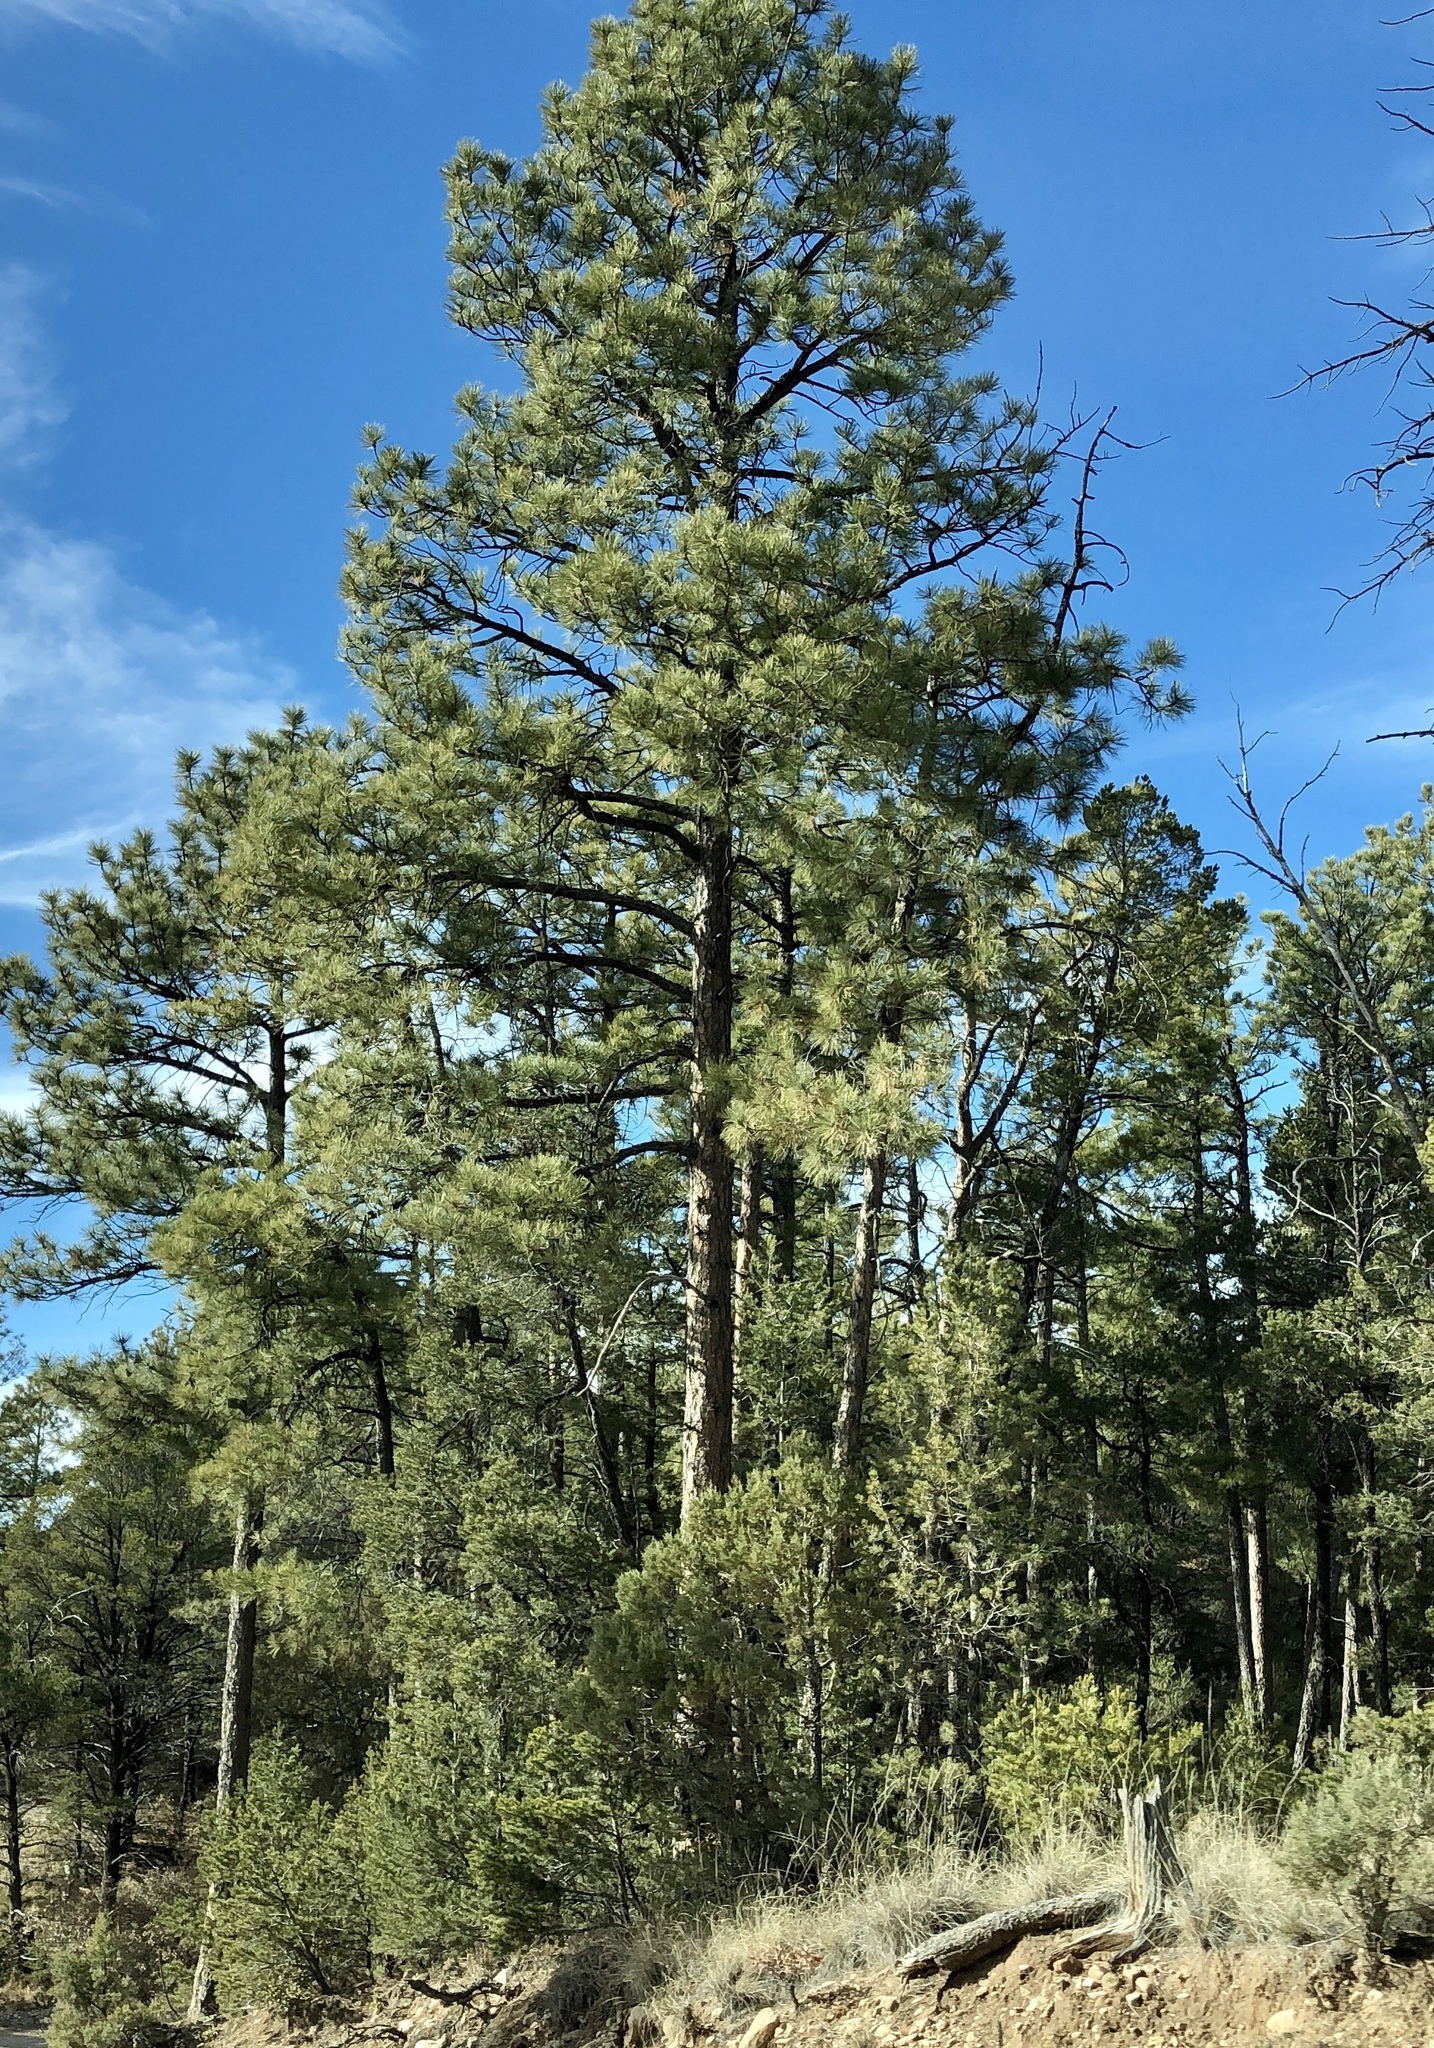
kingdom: Plantae
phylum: Tracheophyta
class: Pinopsida
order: Pinales
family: Pinaceae
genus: Pinus
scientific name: Pinus ponderosa
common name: Western yellow-pine
